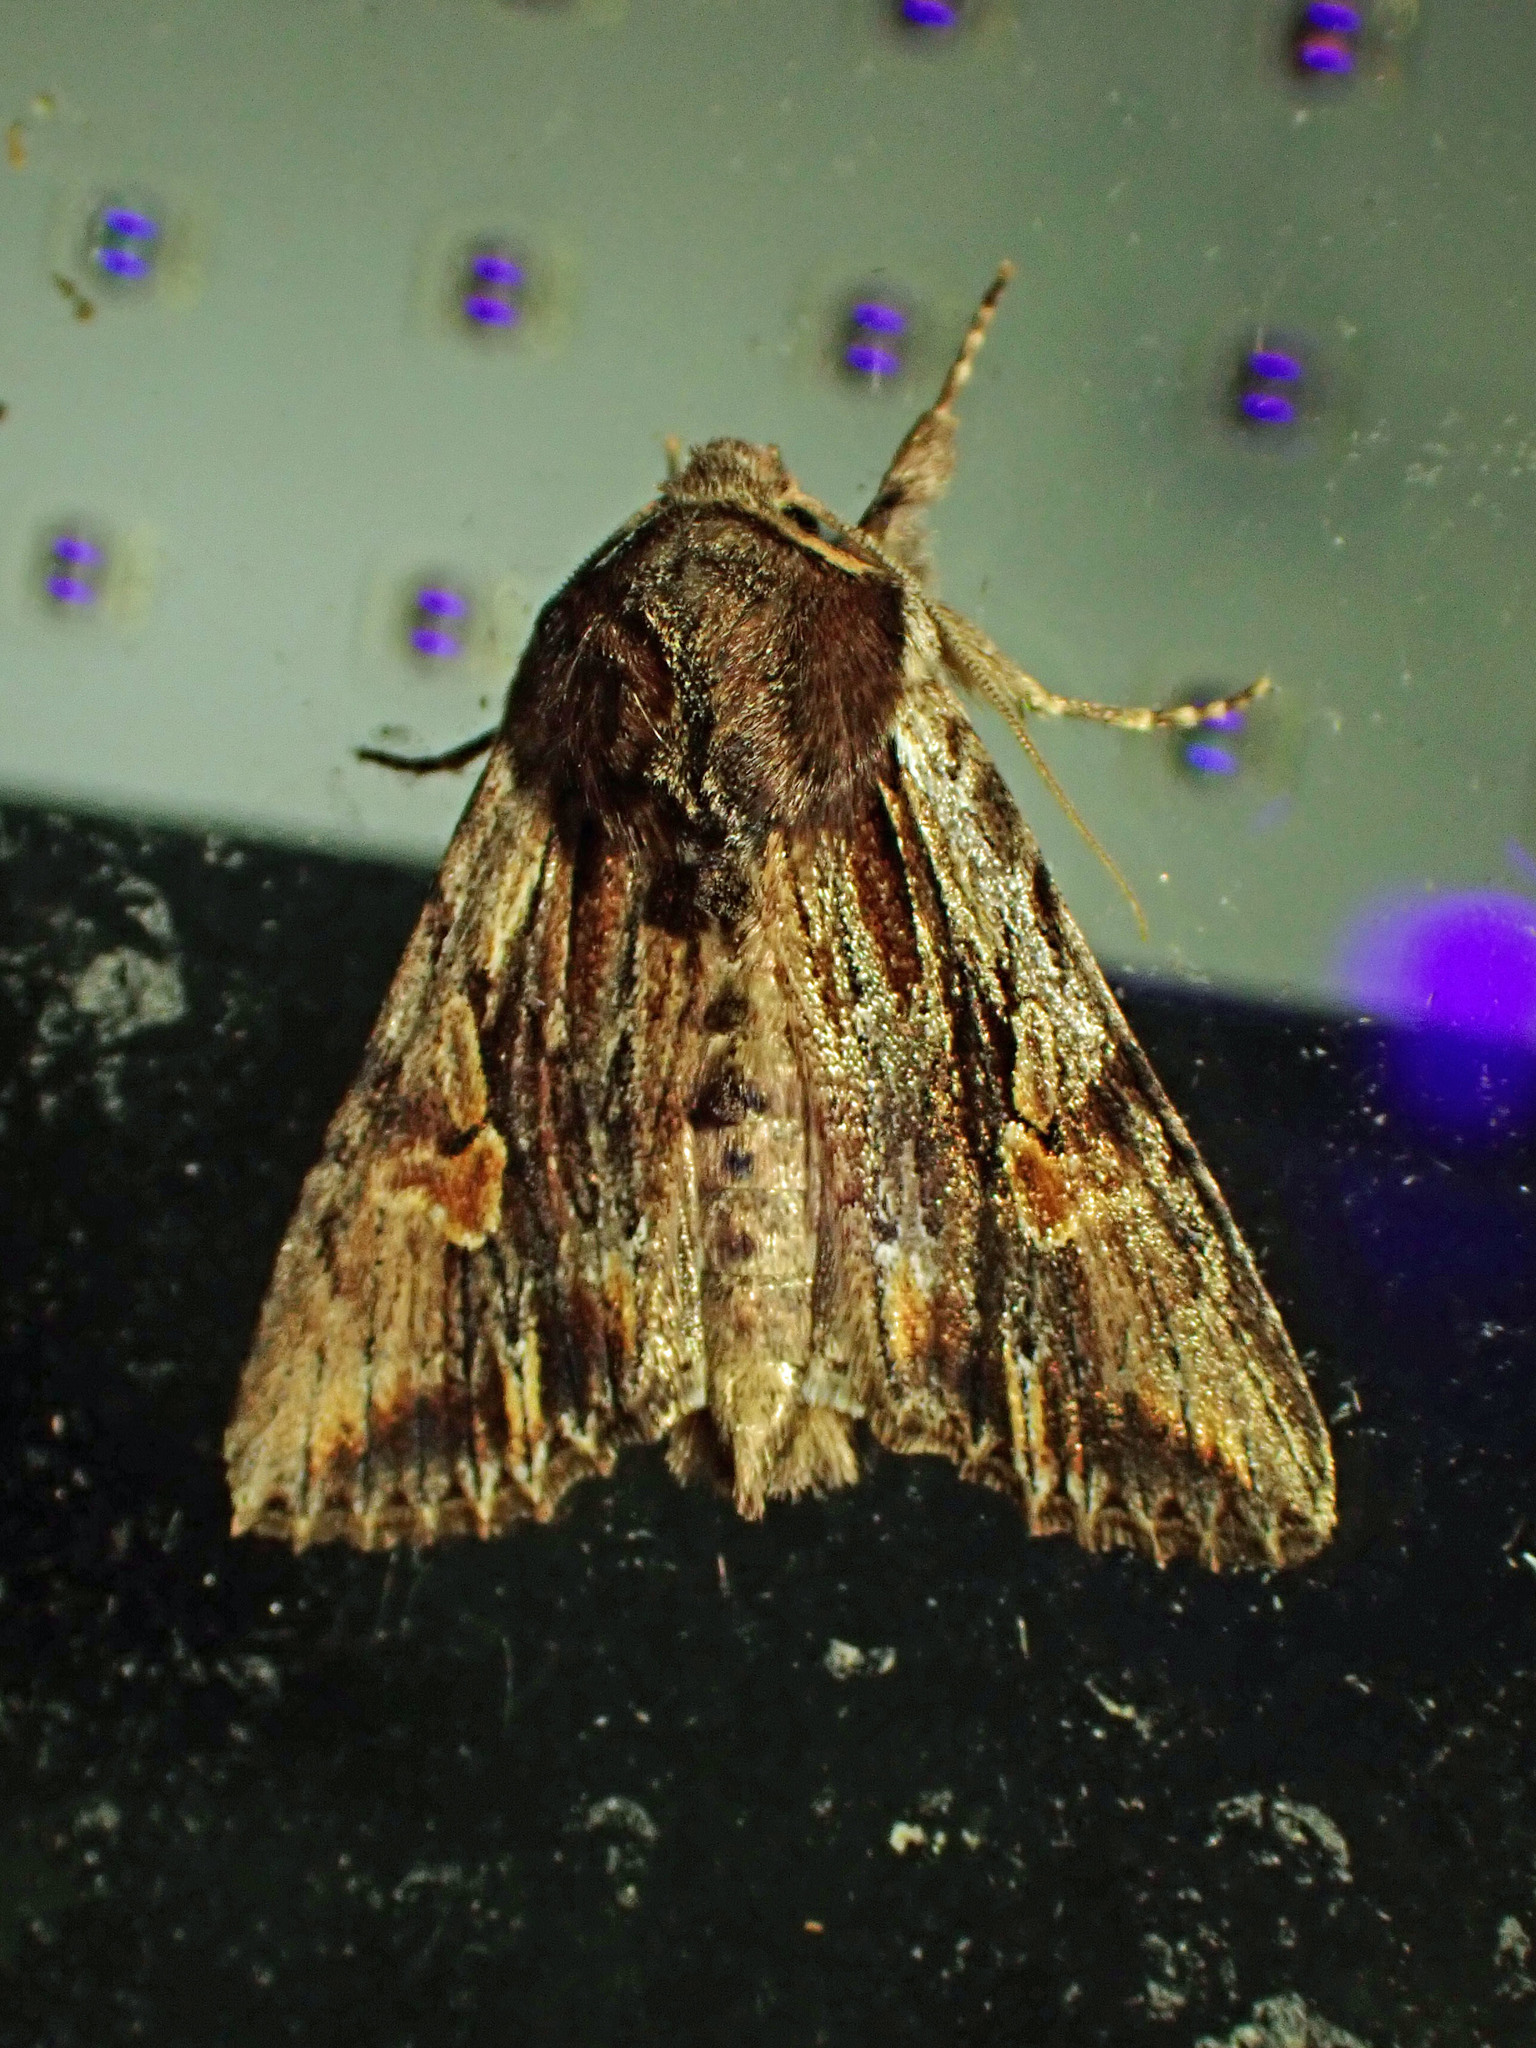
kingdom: Animalia
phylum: Arthropoda
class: Insecta
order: Lepidoptera
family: Noctuidae
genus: Achatia
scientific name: Achatia evicta
